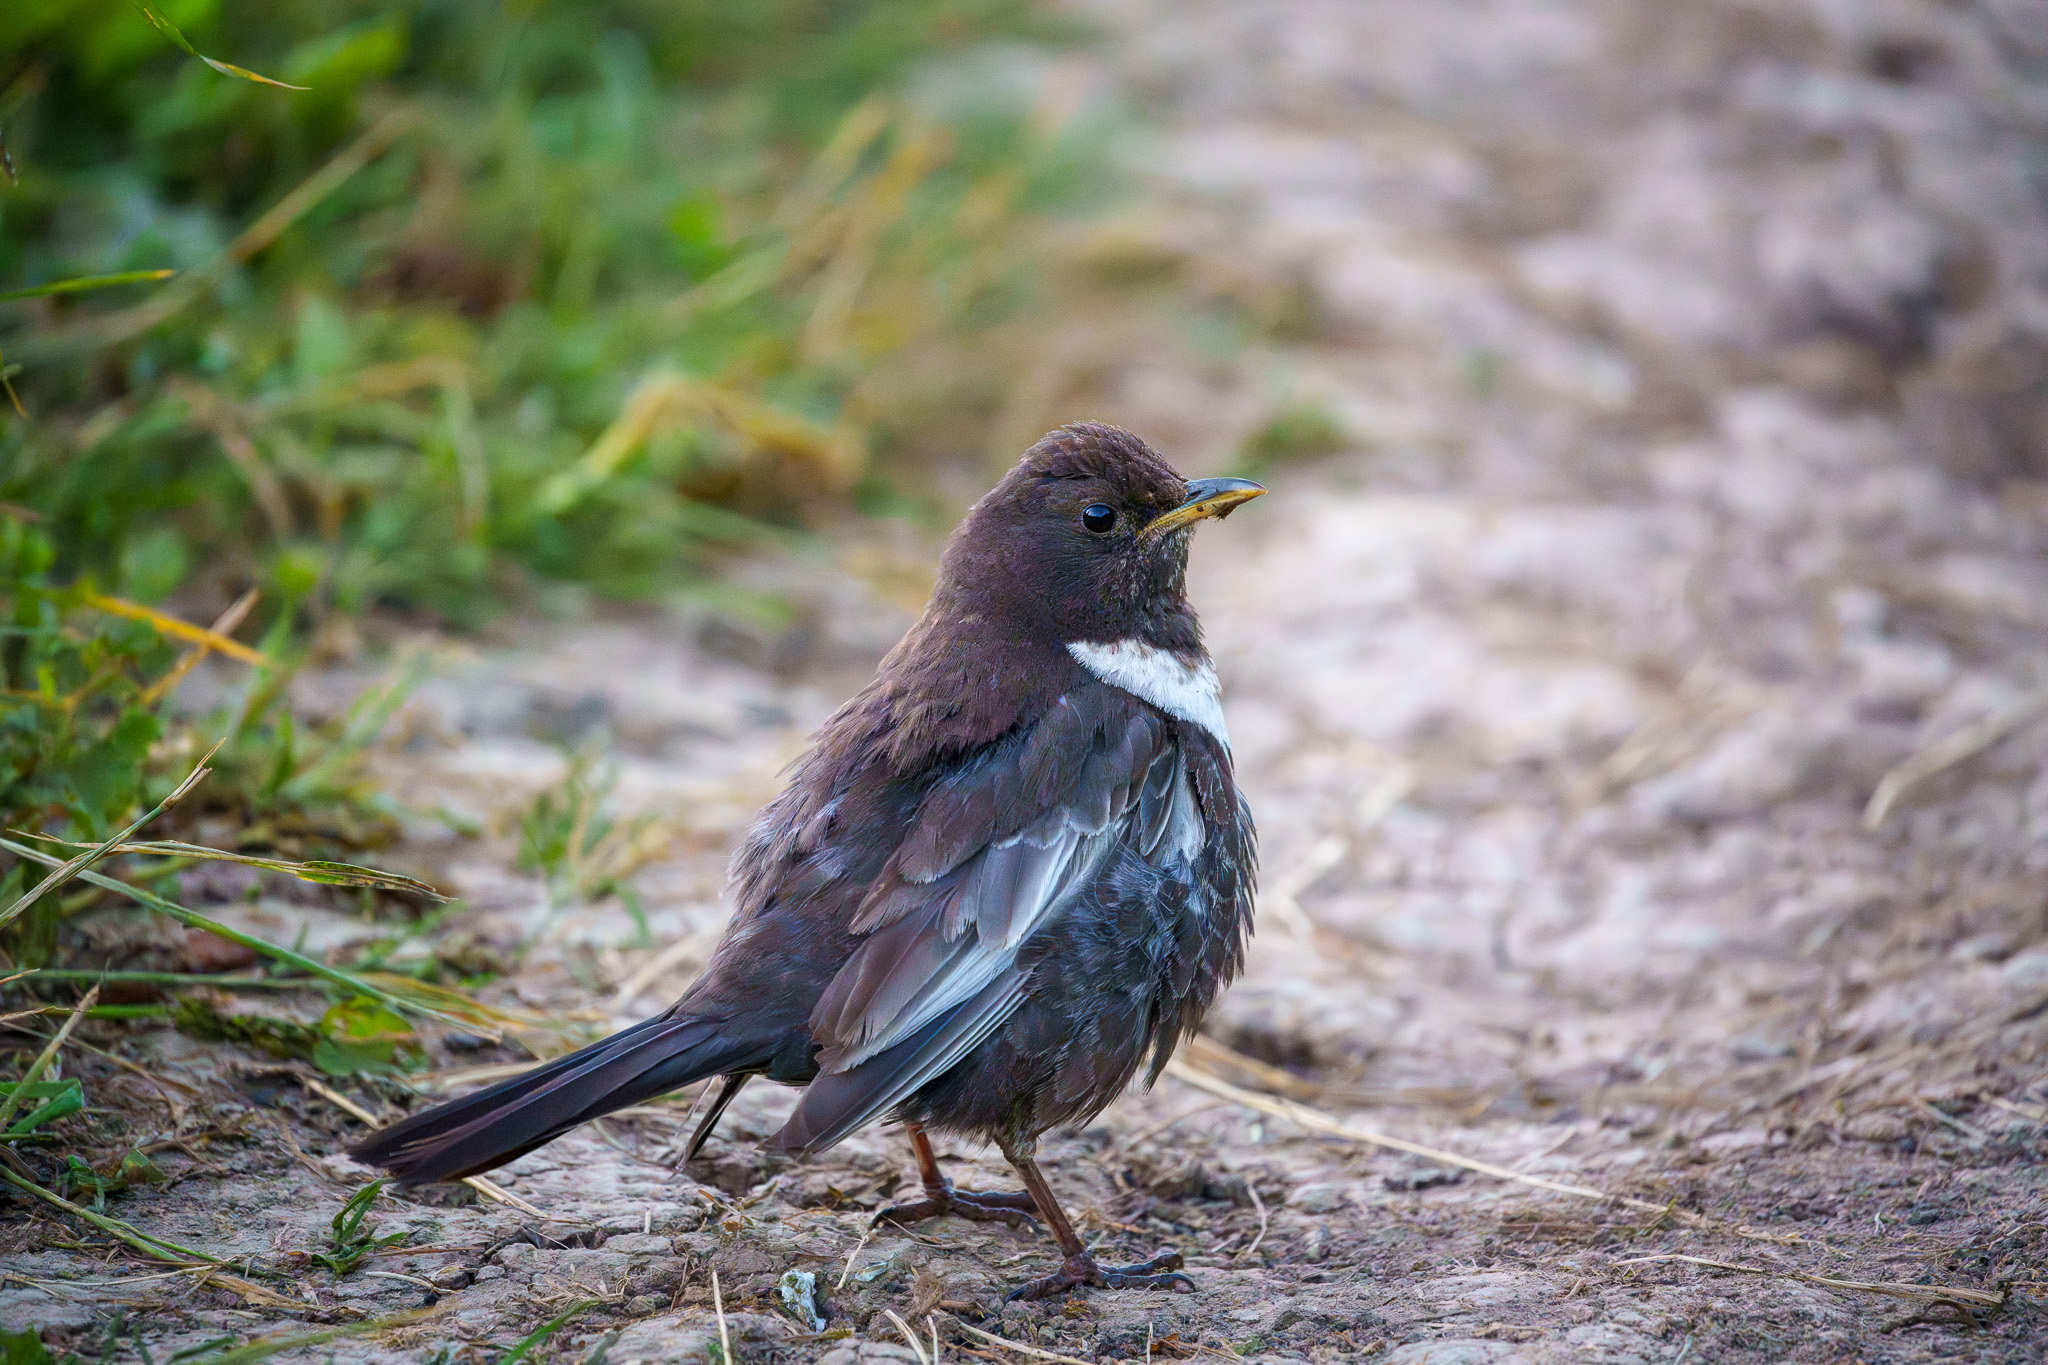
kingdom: Animalia
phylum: Chordata
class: Aves
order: Passeriformes
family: Turdidae
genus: Turdus
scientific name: Turdus torquatus
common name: Ring ouzel
